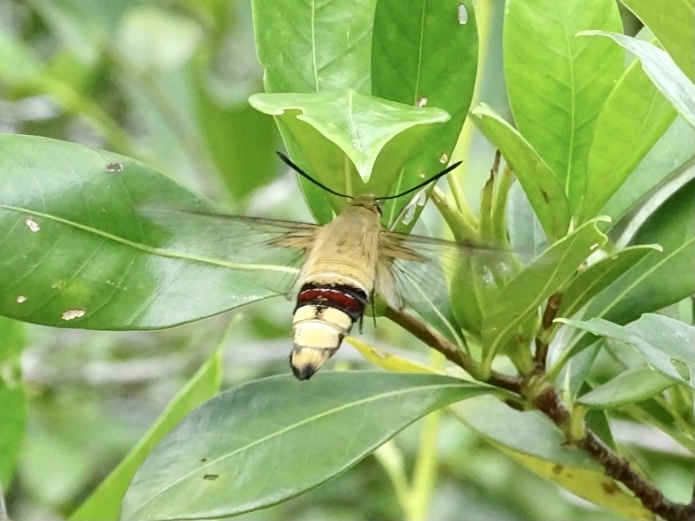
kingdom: Animalia
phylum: Arthropoda
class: Insecta
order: Lepidoptera
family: Sphingidae
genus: Cephonodes
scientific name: Cephonodes hylas
